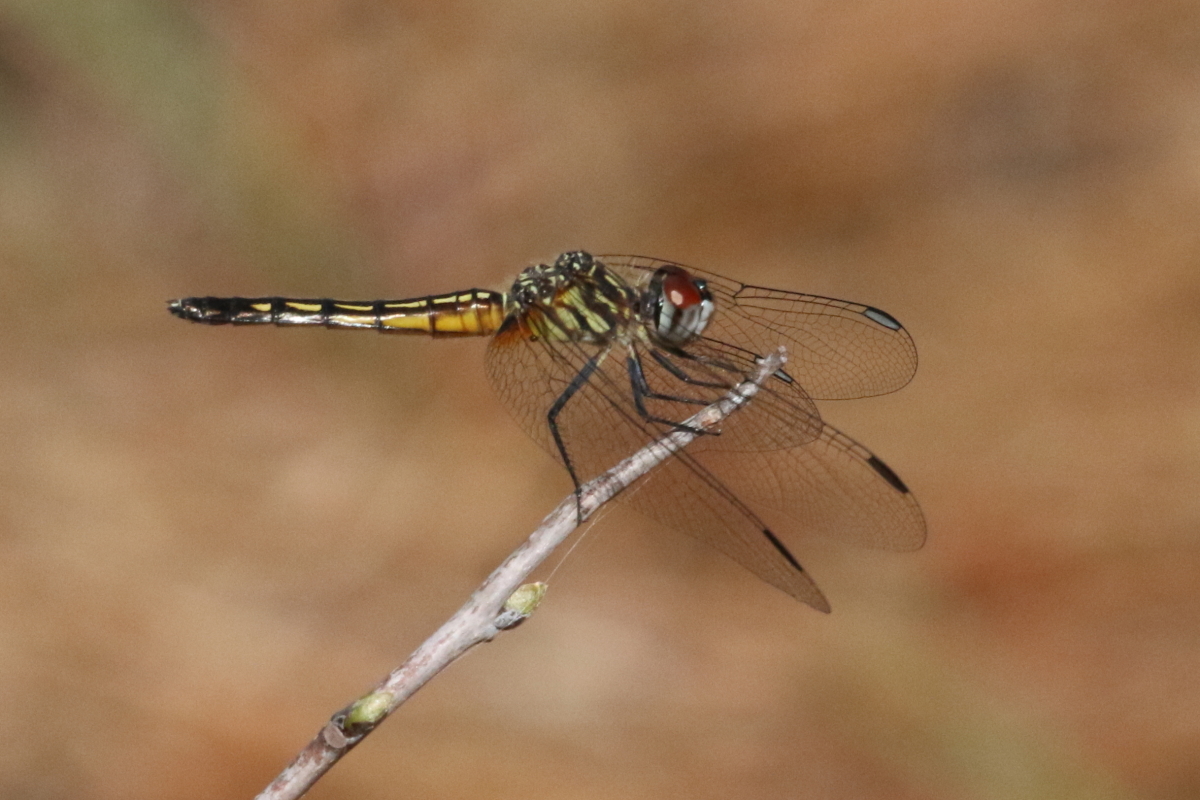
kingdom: Animalia
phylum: Arthropoda
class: Insecta
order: Odonata
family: Libellulidae
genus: Pachydiplax
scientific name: Pachydiplax longipennis
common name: Blue dasher
